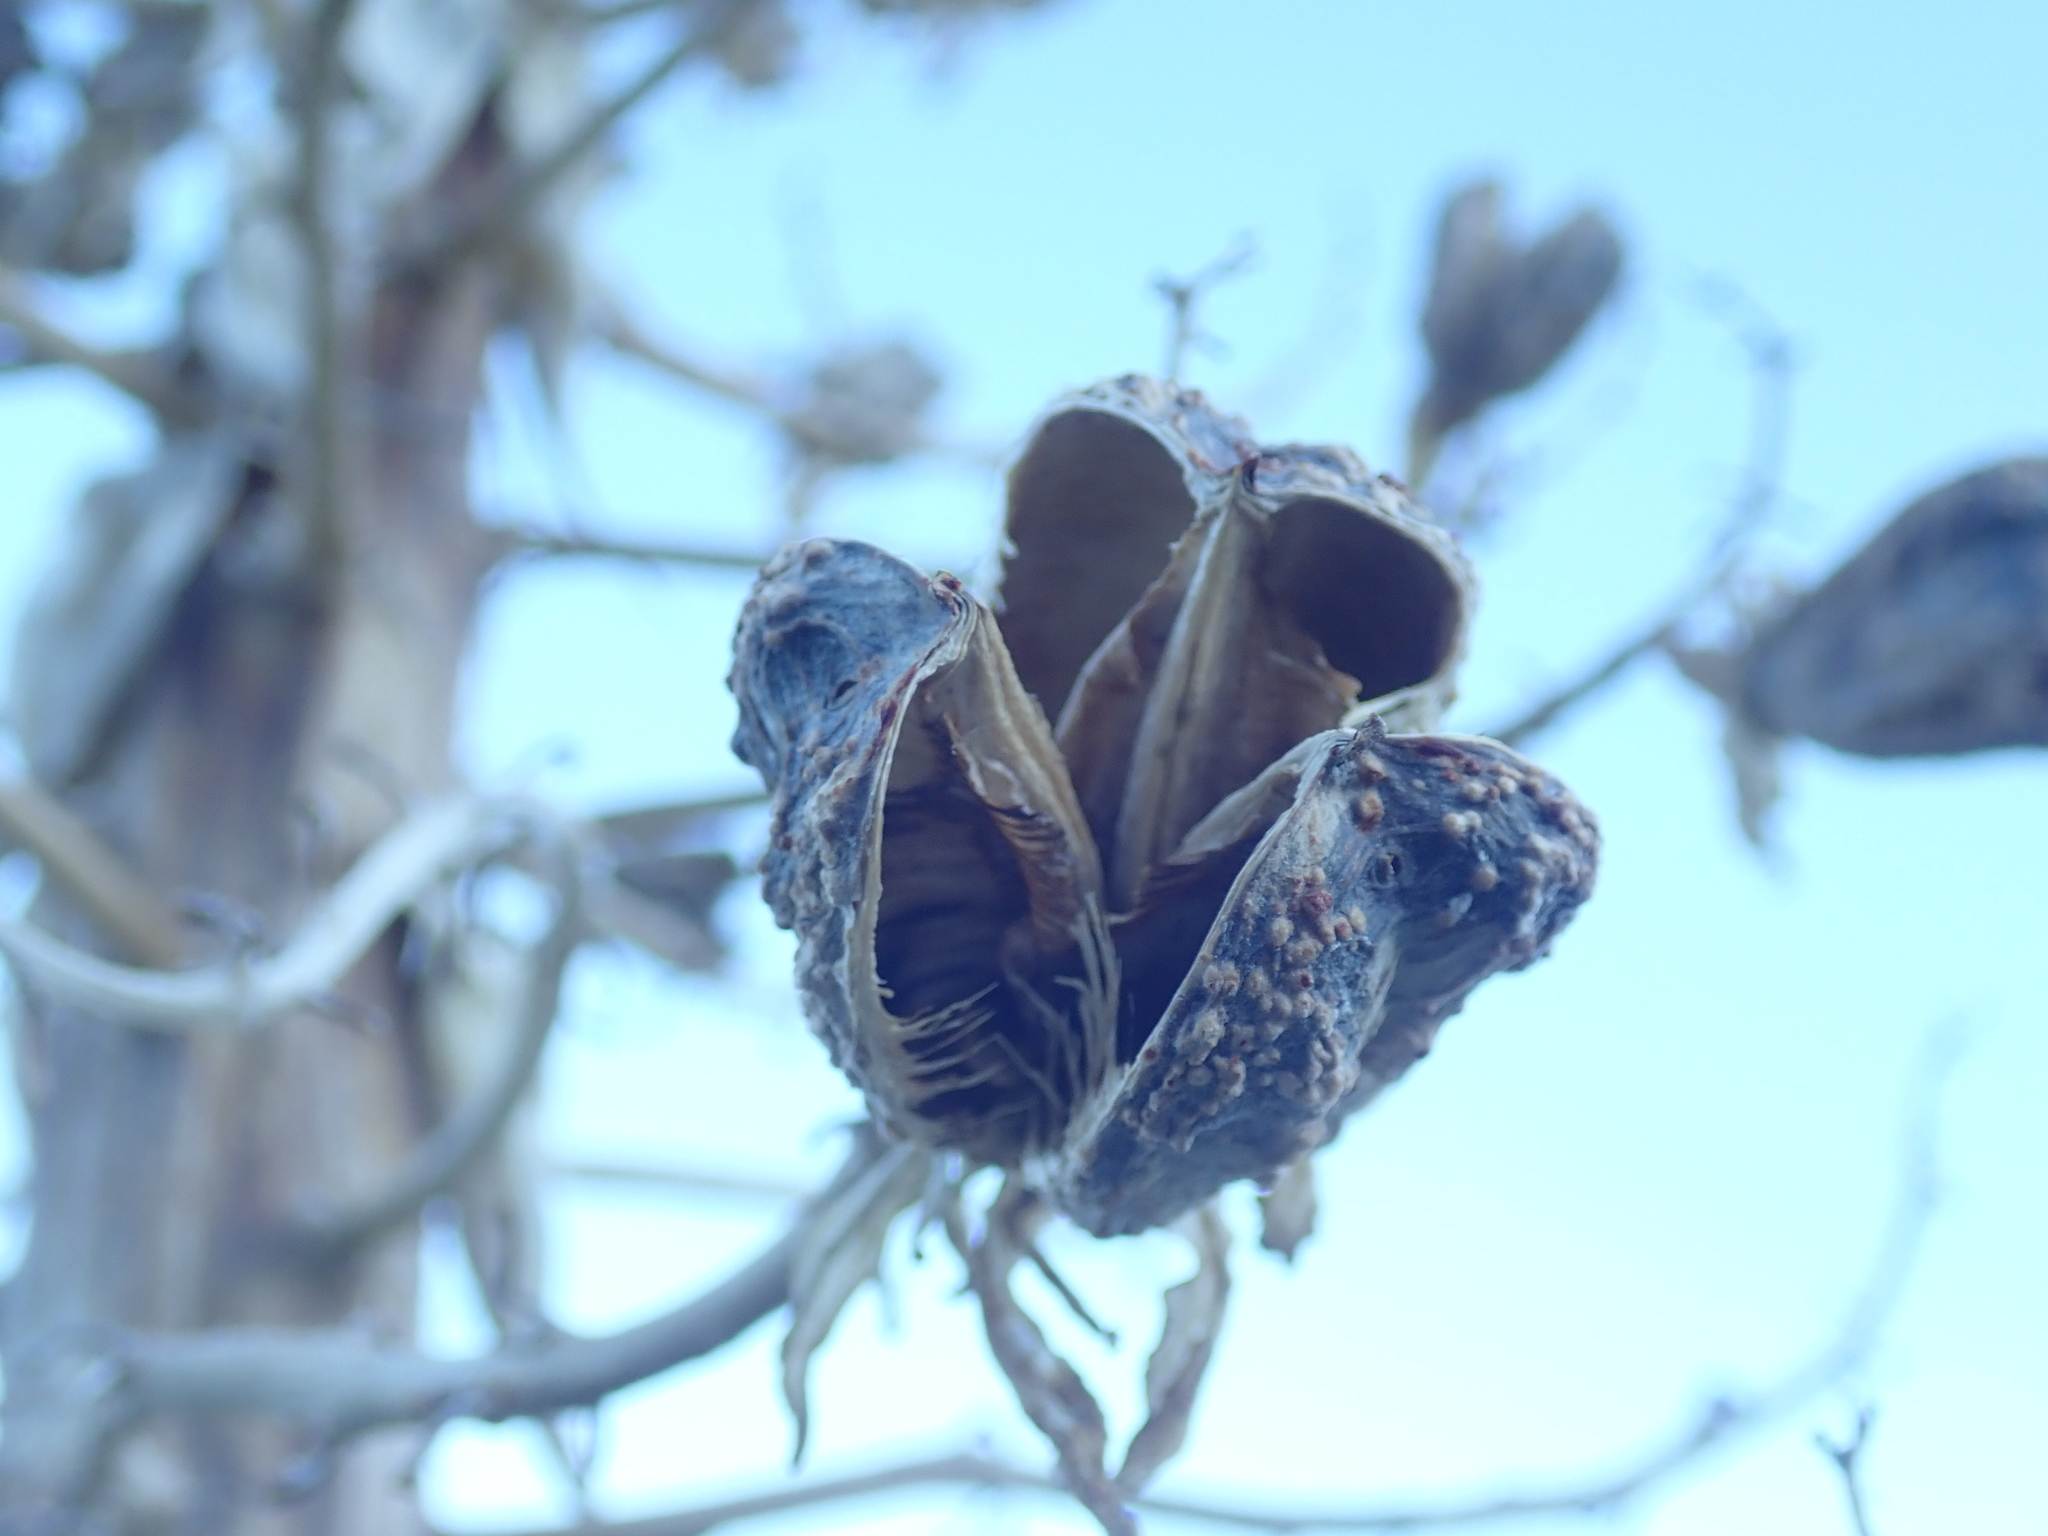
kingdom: Plantae
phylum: Tracheophyta
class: Liliopsida
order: Asparagales
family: Asparagaceae
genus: Hesperoyucca
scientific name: Hesperoyucca whipplei
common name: Our lord's-candle
